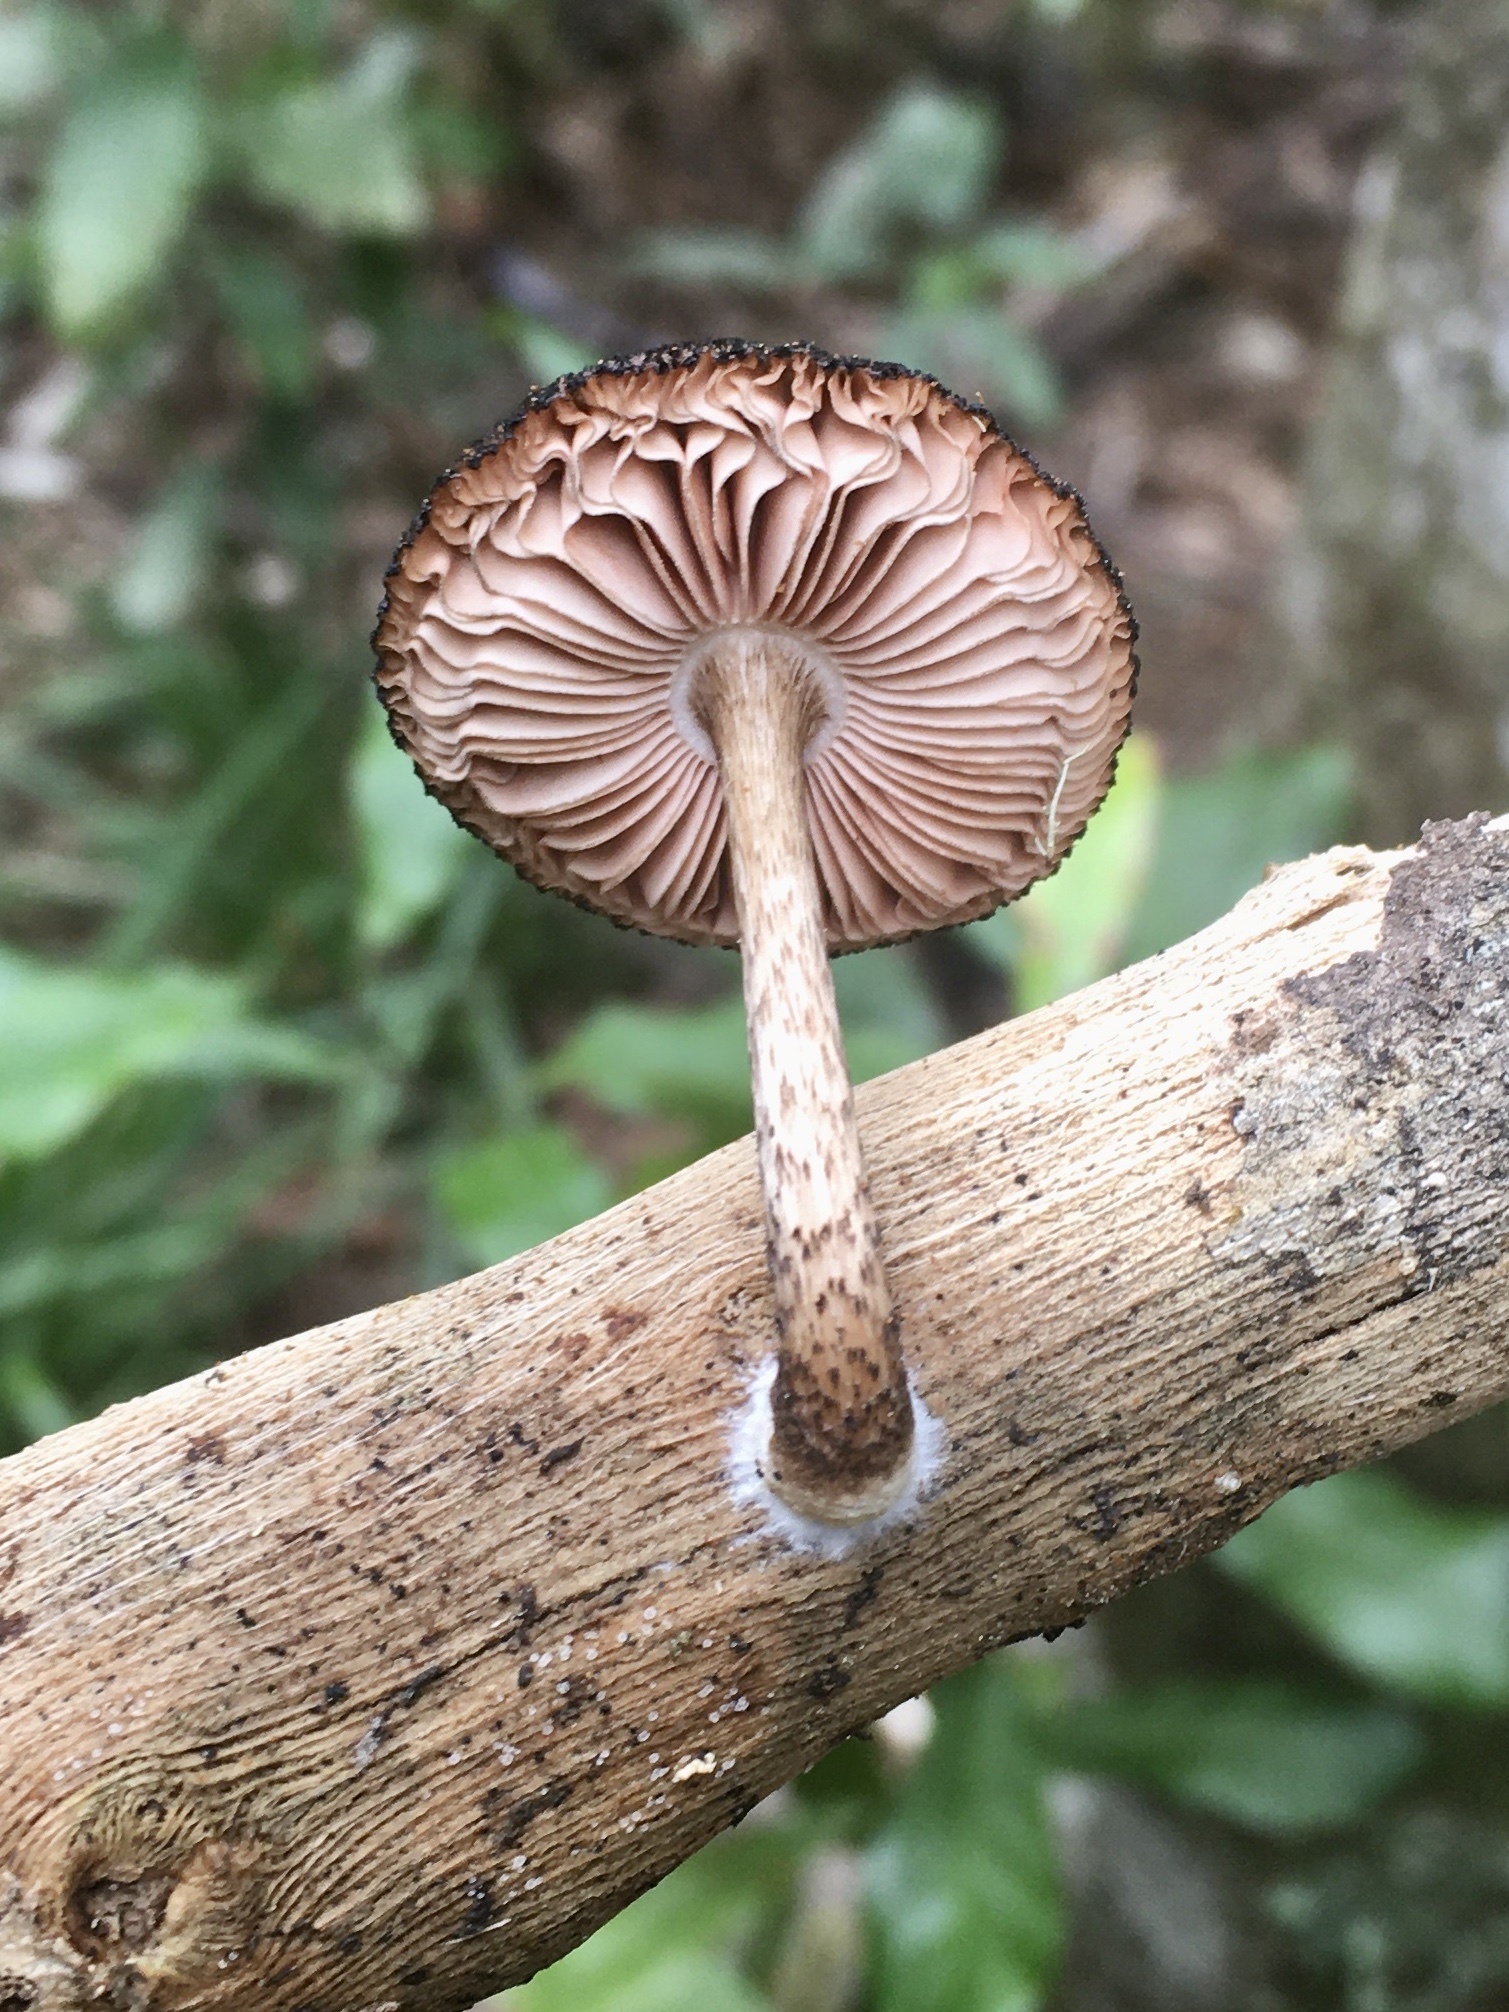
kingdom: Fungi
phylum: Basidiomycota
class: Agaricomycetes
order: Agaricales
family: Pluteaceae
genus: Pluteus
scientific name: Pluteus perroseus
